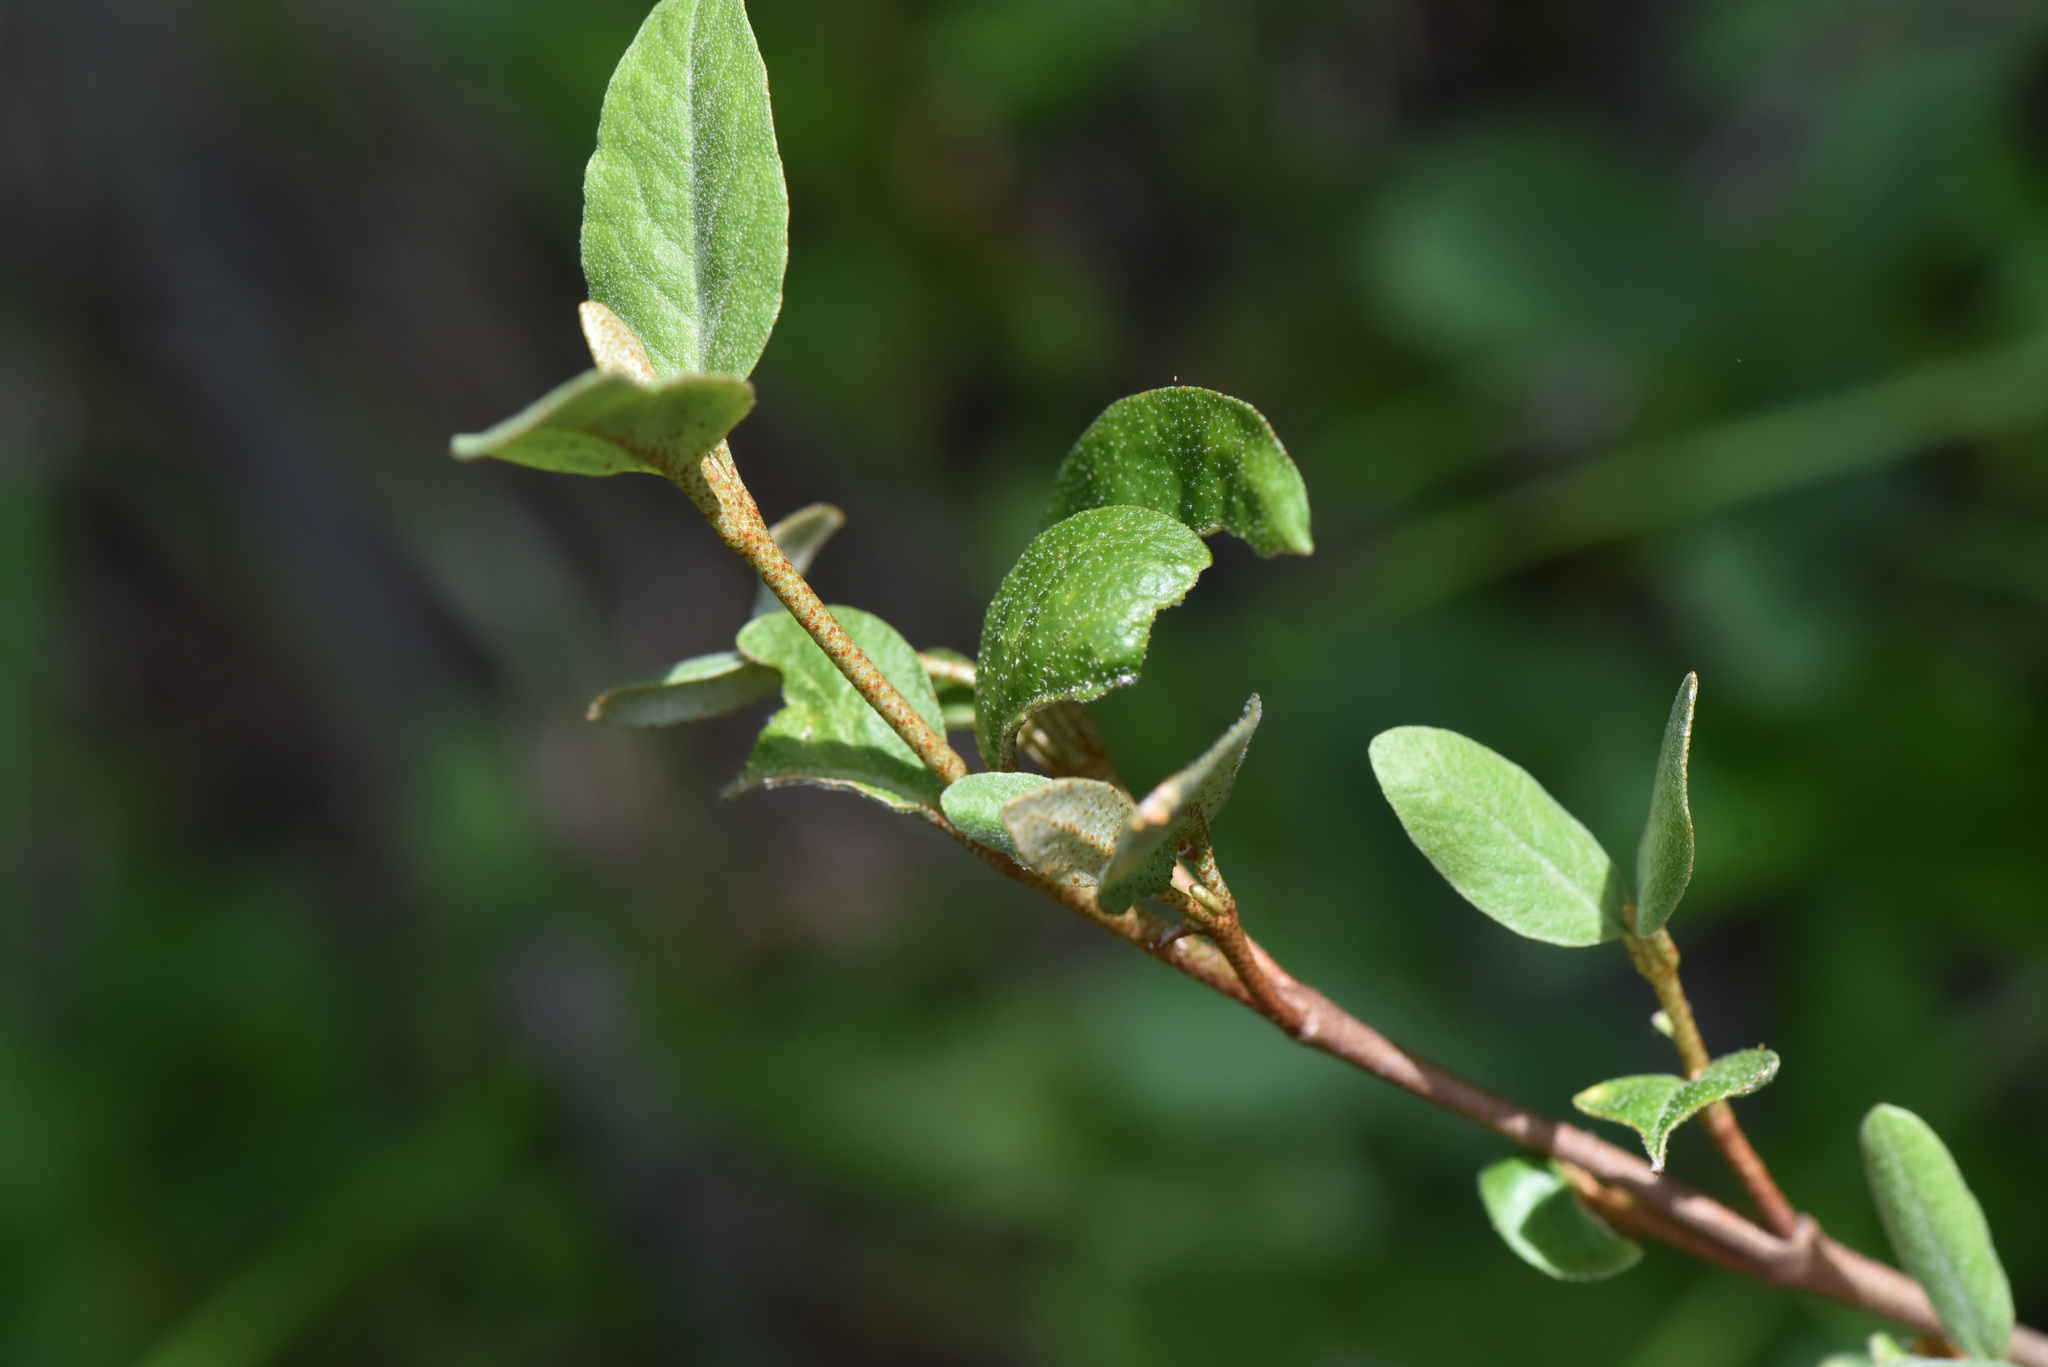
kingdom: Plantae
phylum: Tracheophyta
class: Magnoliopsida
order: Rosales
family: Elaeagnaceae
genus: Shepherdia
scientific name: Shepherdia canadensis
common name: Soapberry
